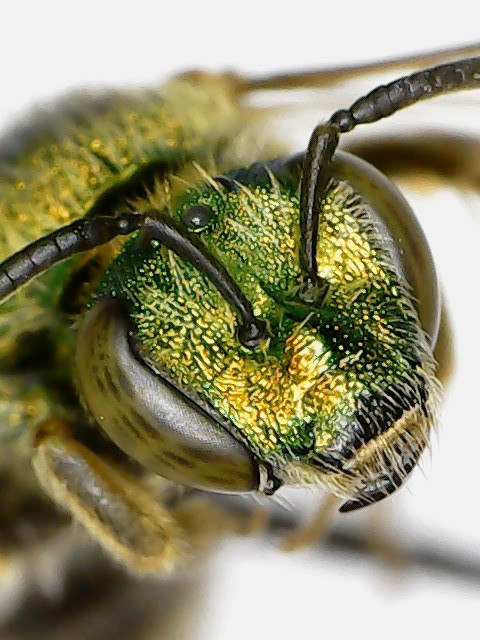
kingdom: Animalia
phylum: Arthropoda
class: Insecta
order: Hymenoptera
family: Halictidae
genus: Agapostemon
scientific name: Agapostemon
